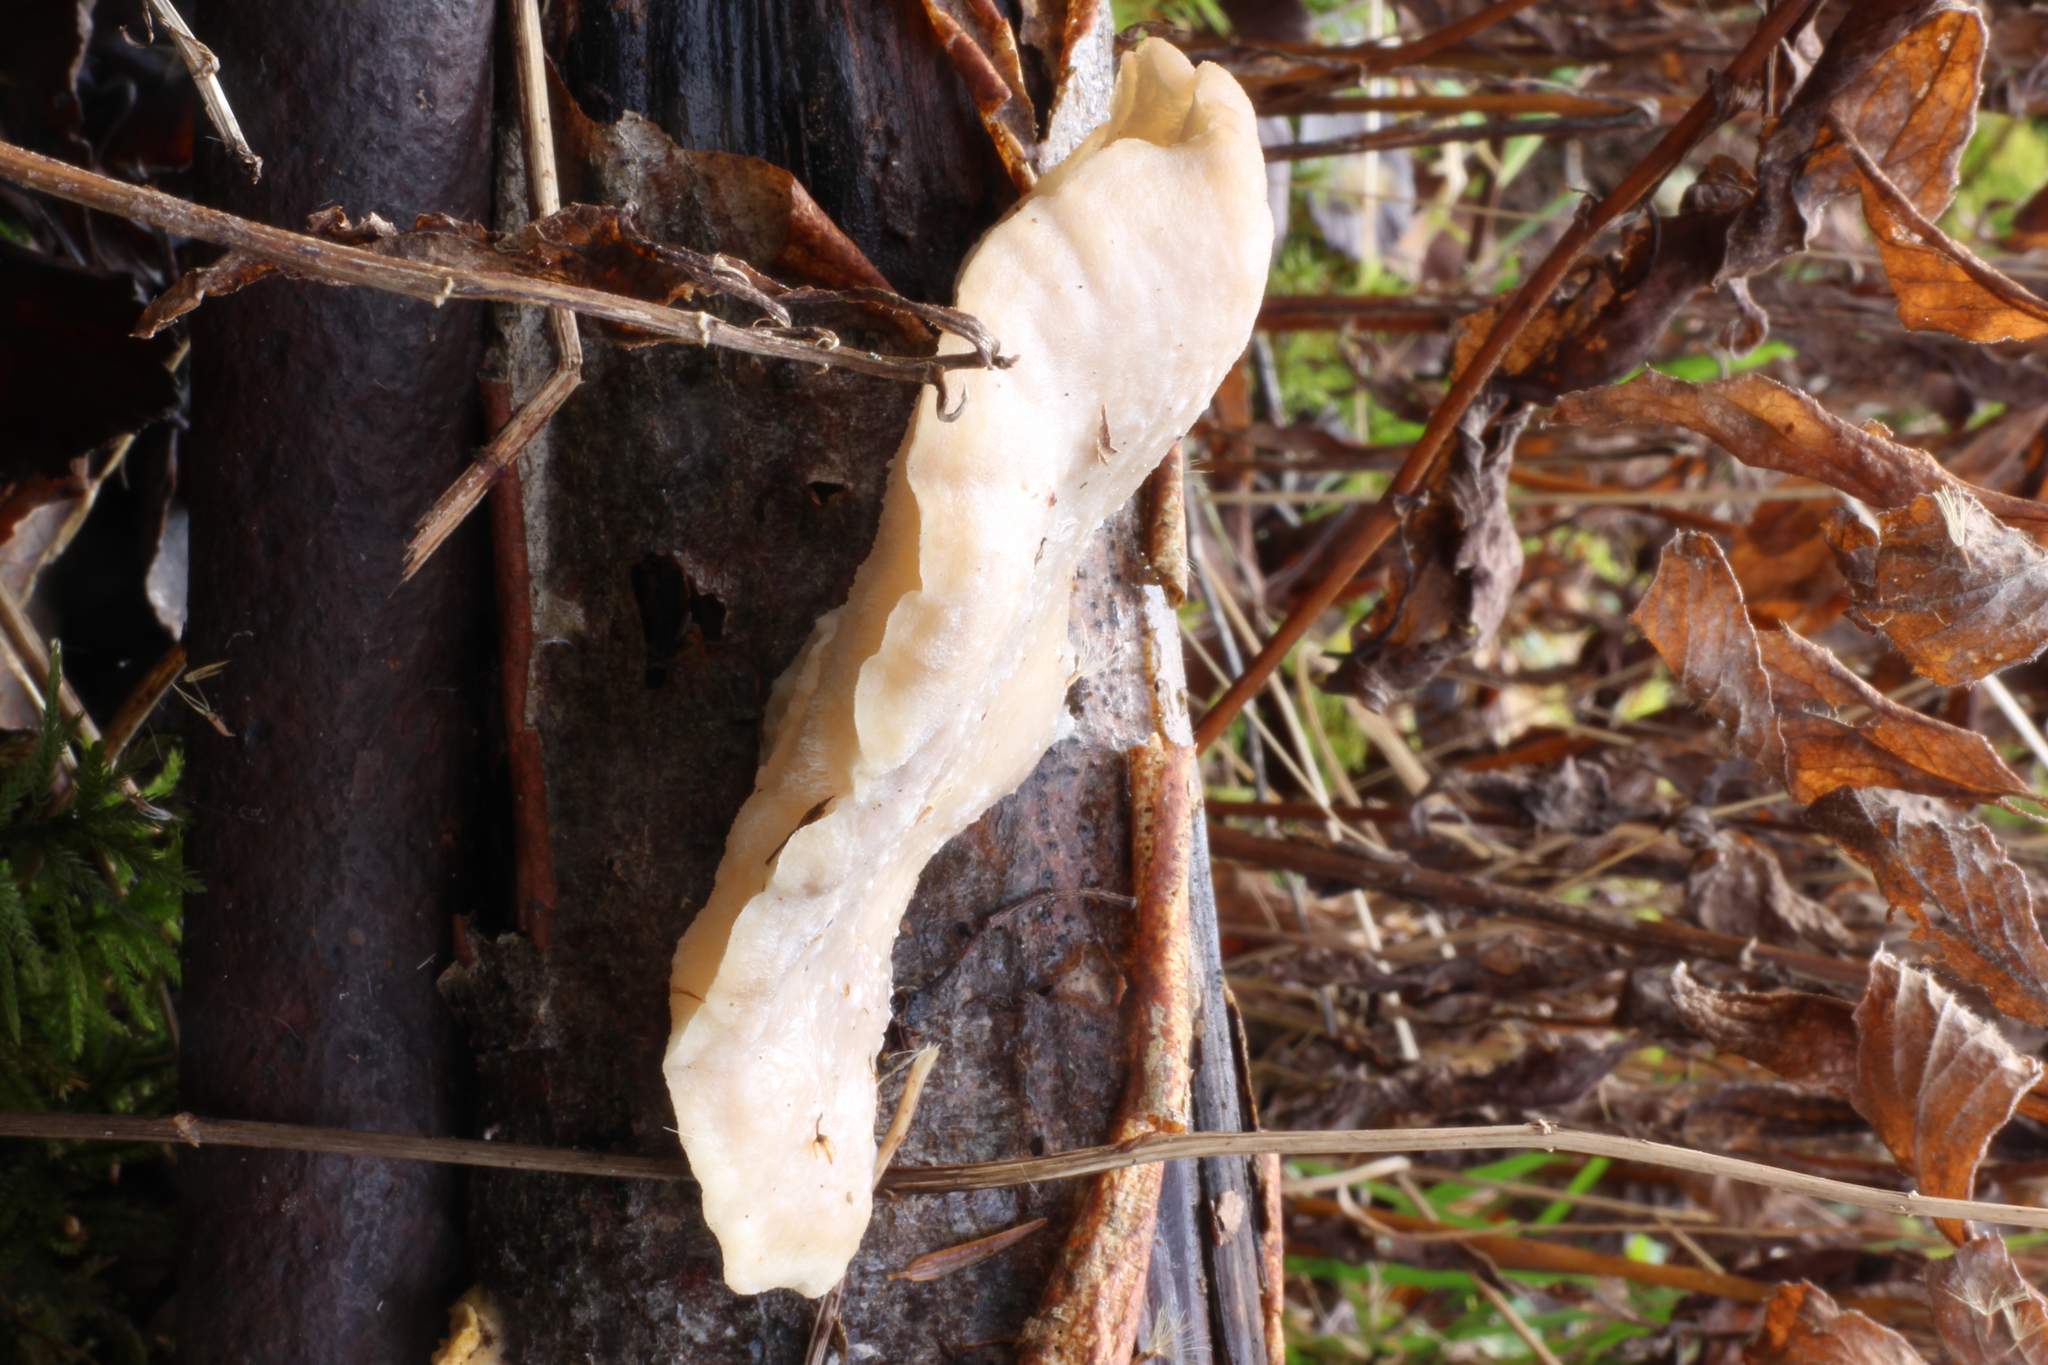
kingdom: Fungi
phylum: Basidiomycota
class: Agaricomycetes
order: Polyporales
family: Incrustoporiaceae
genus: Tyromyces
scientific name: Tyromyces chioneus
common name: White cheese polypore
